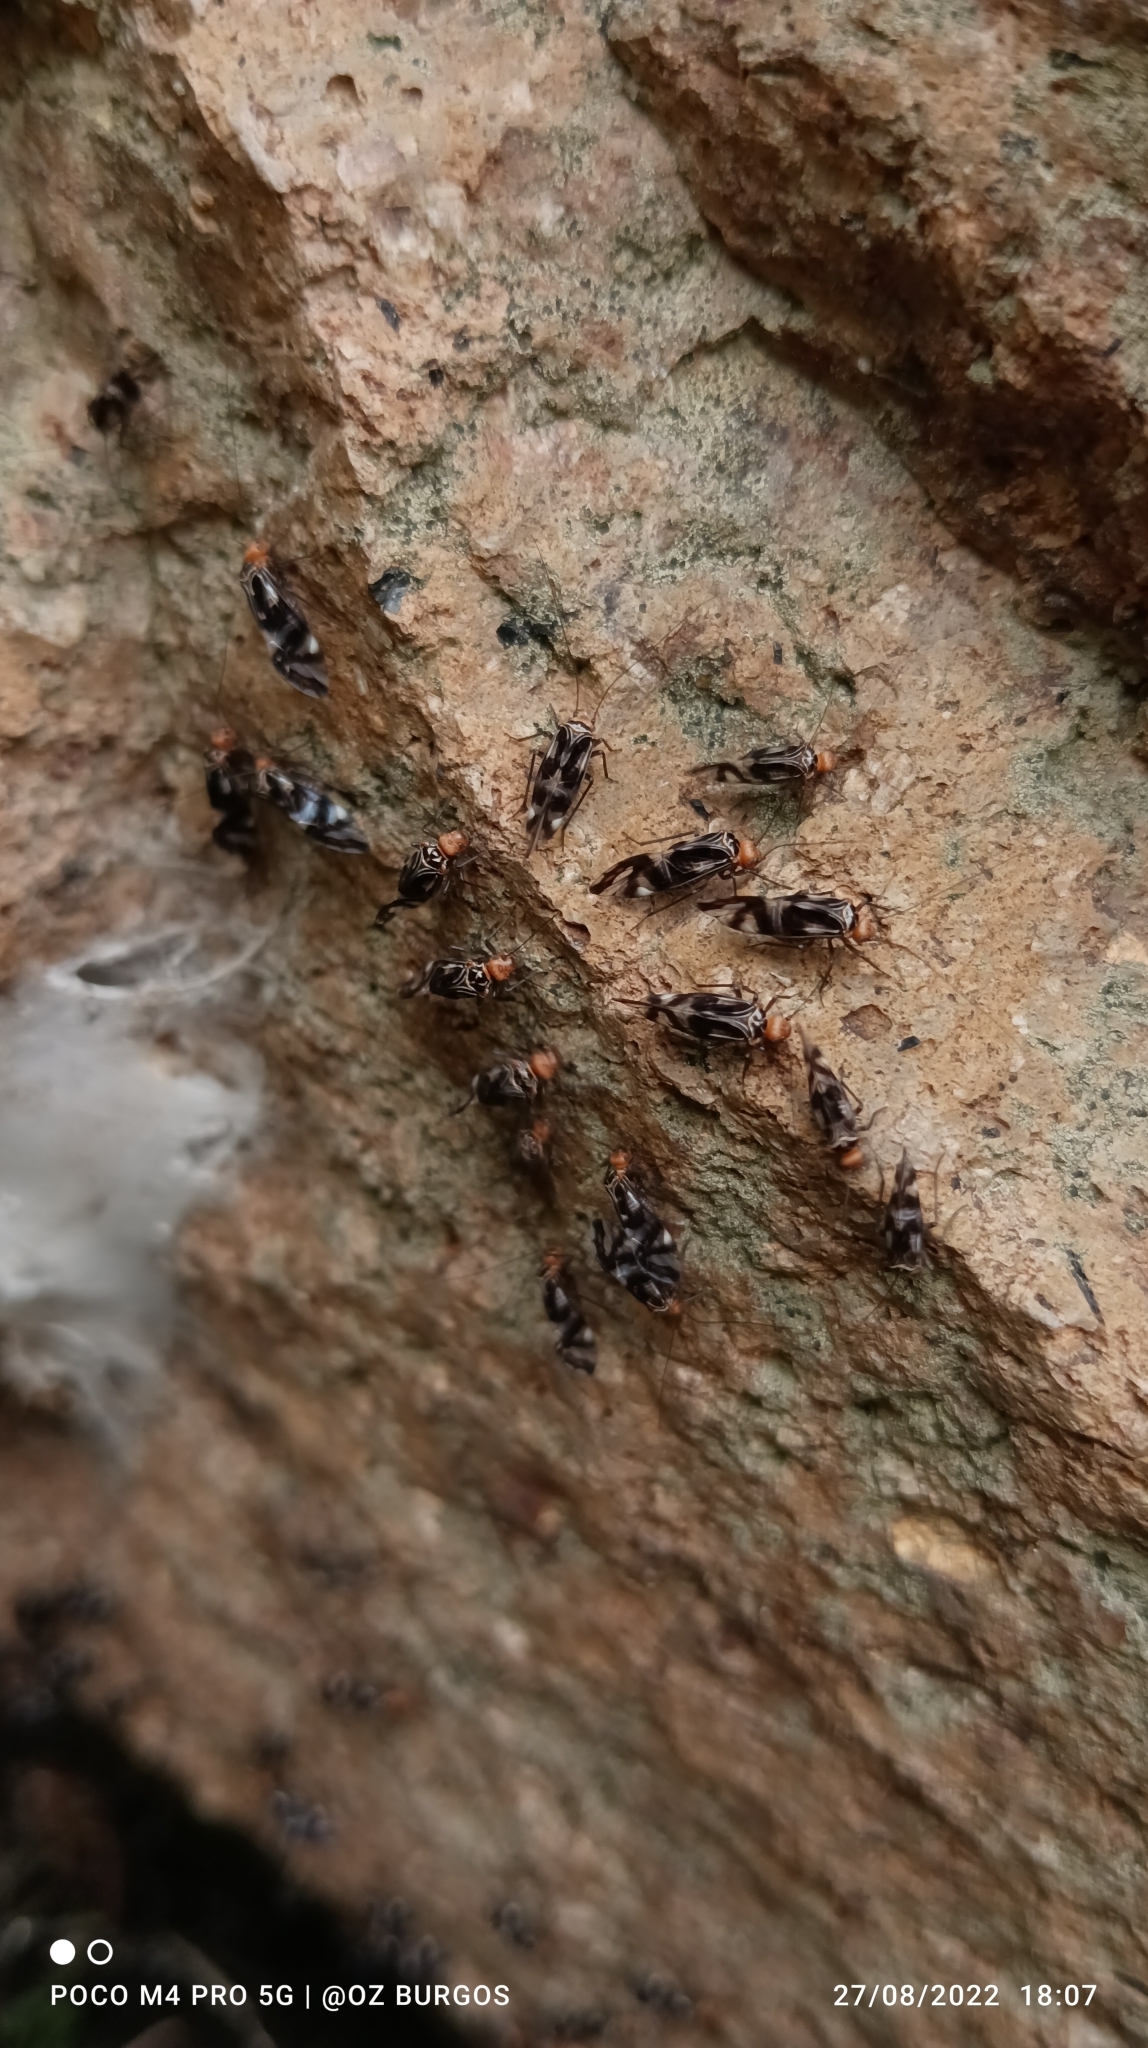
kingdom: Animalia
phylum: Arthropoda
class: Insecta
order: Psocodea
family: Psocidae
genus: Cerastipsocus
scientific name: Cerastipsocus trifasciatus
